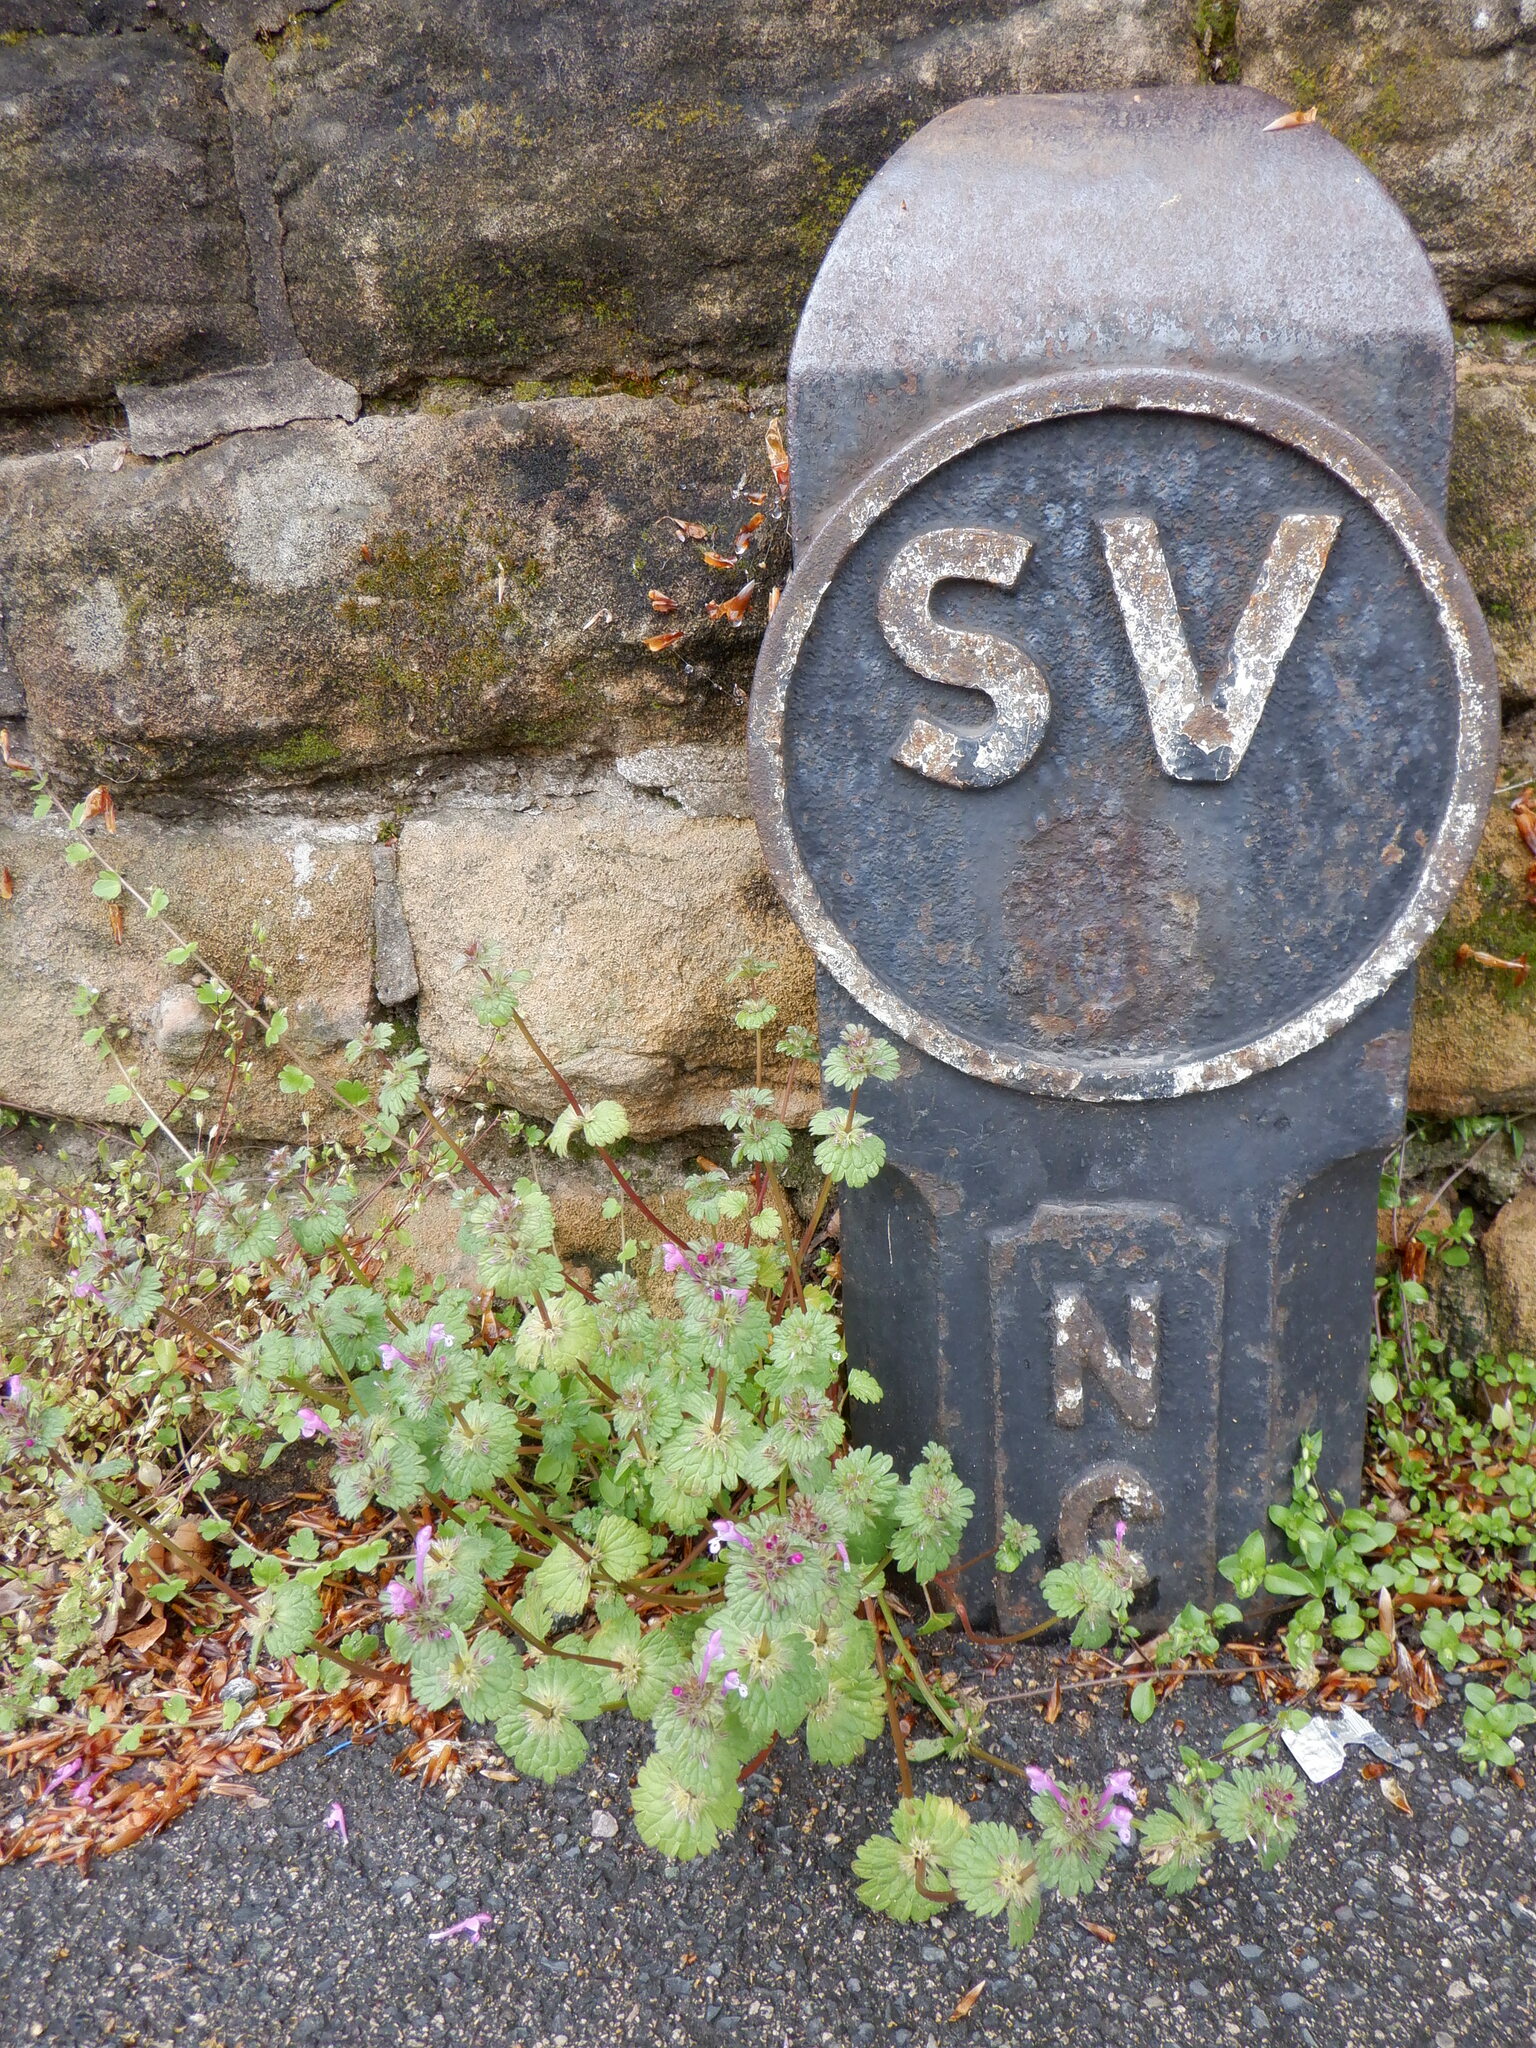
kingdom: Plantae
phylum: Tracheophyta
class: Magnoliopsida
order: Lamiales
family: Lamiaceae
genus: Lamium
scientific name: Lamium amplexicaule
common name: Henbit dead-nettle
